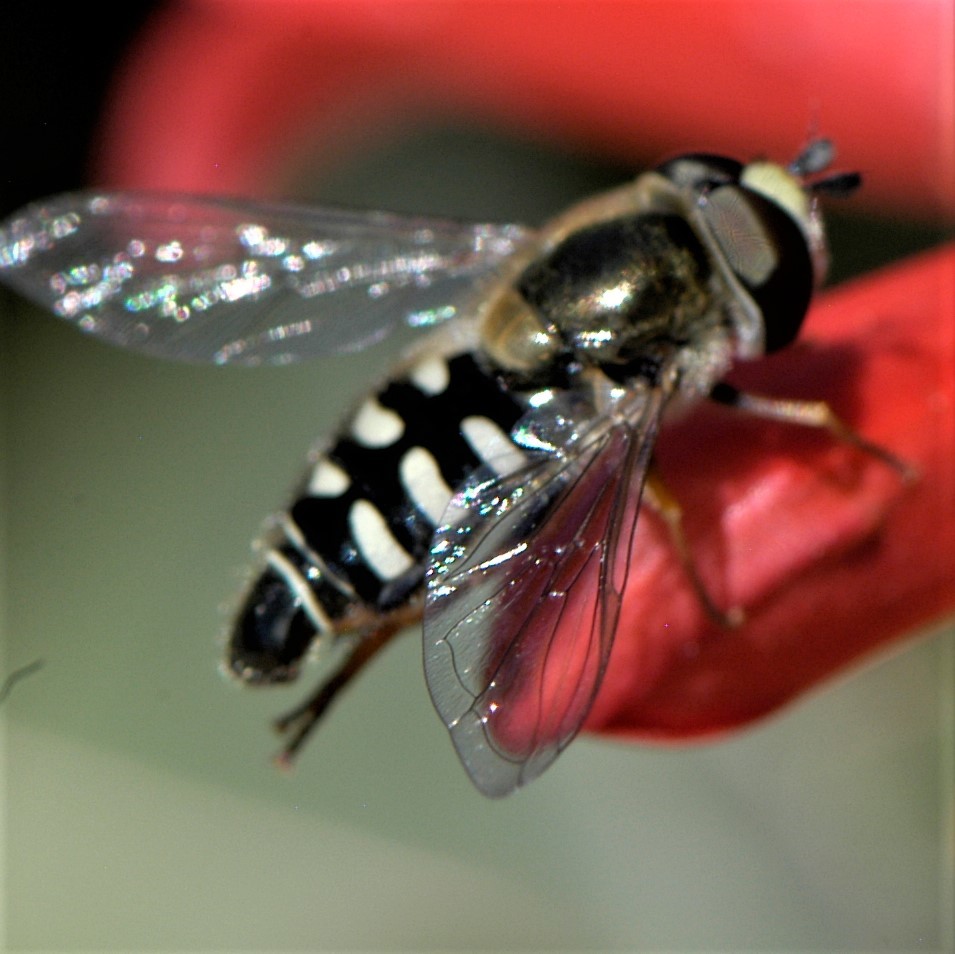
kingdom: Animalia
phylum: Arthropoda
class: Insecta
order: Diptera
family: Syrphidae
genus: Eupeodes
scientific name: Eupeodes volucris
